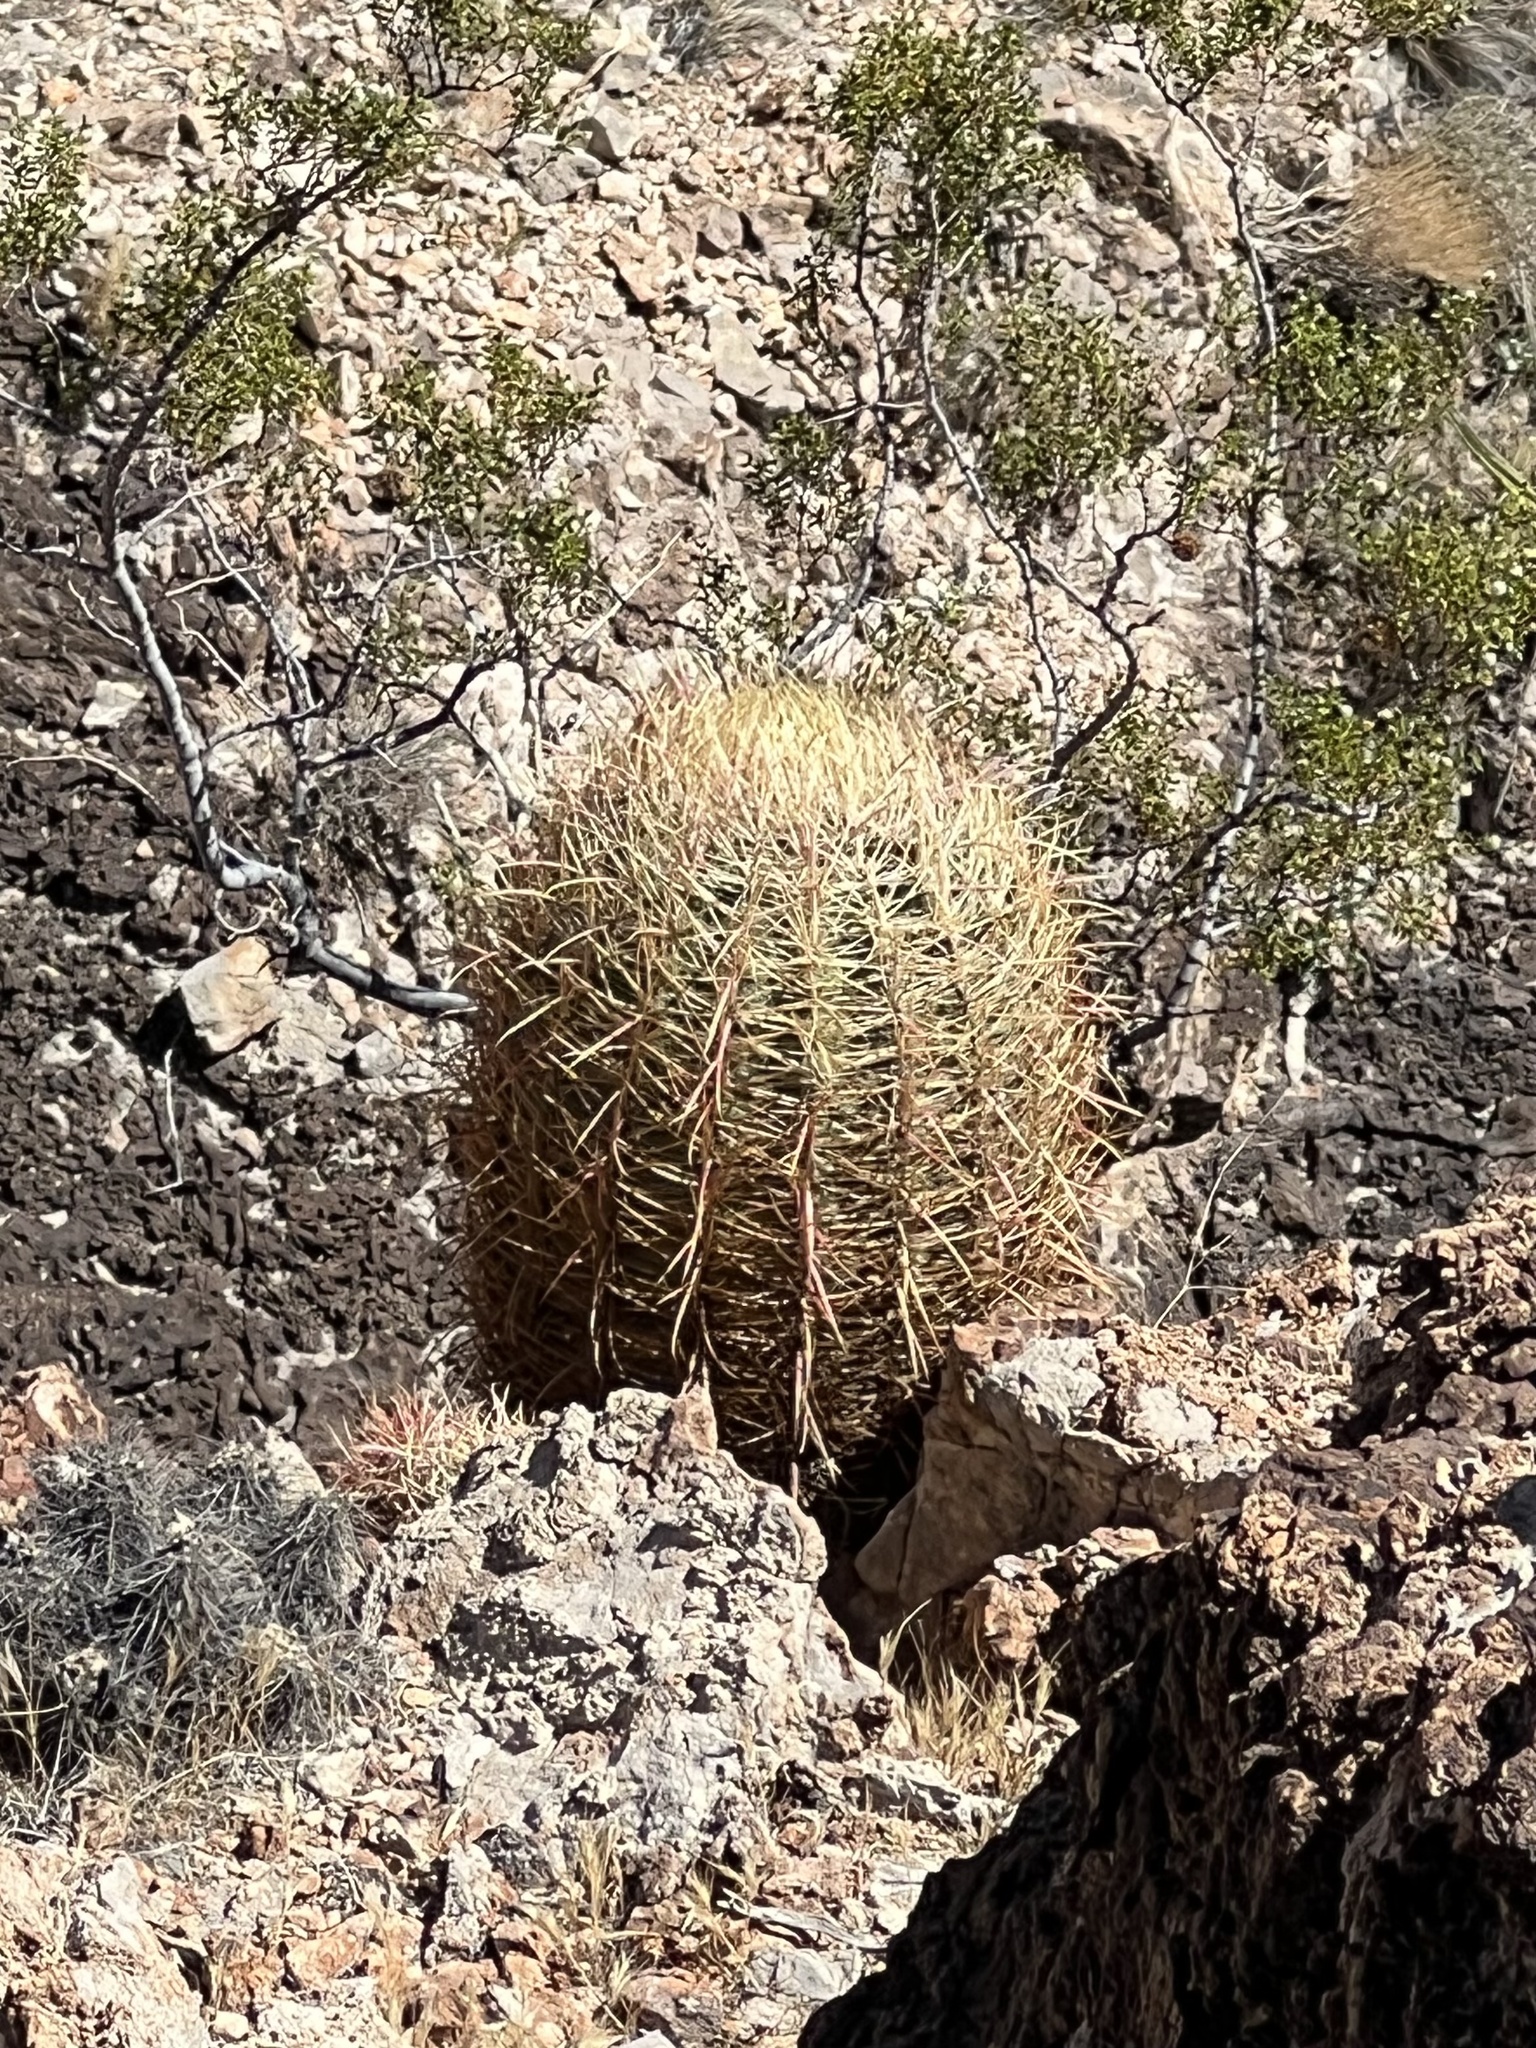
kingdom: Plantae
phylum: Tracheophyta
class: Magnoliopsida
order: Caryophyllales
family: Cactaceae
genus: Ferocactus
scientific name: Ferocactus cylindraceus
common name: California barrel cactus
